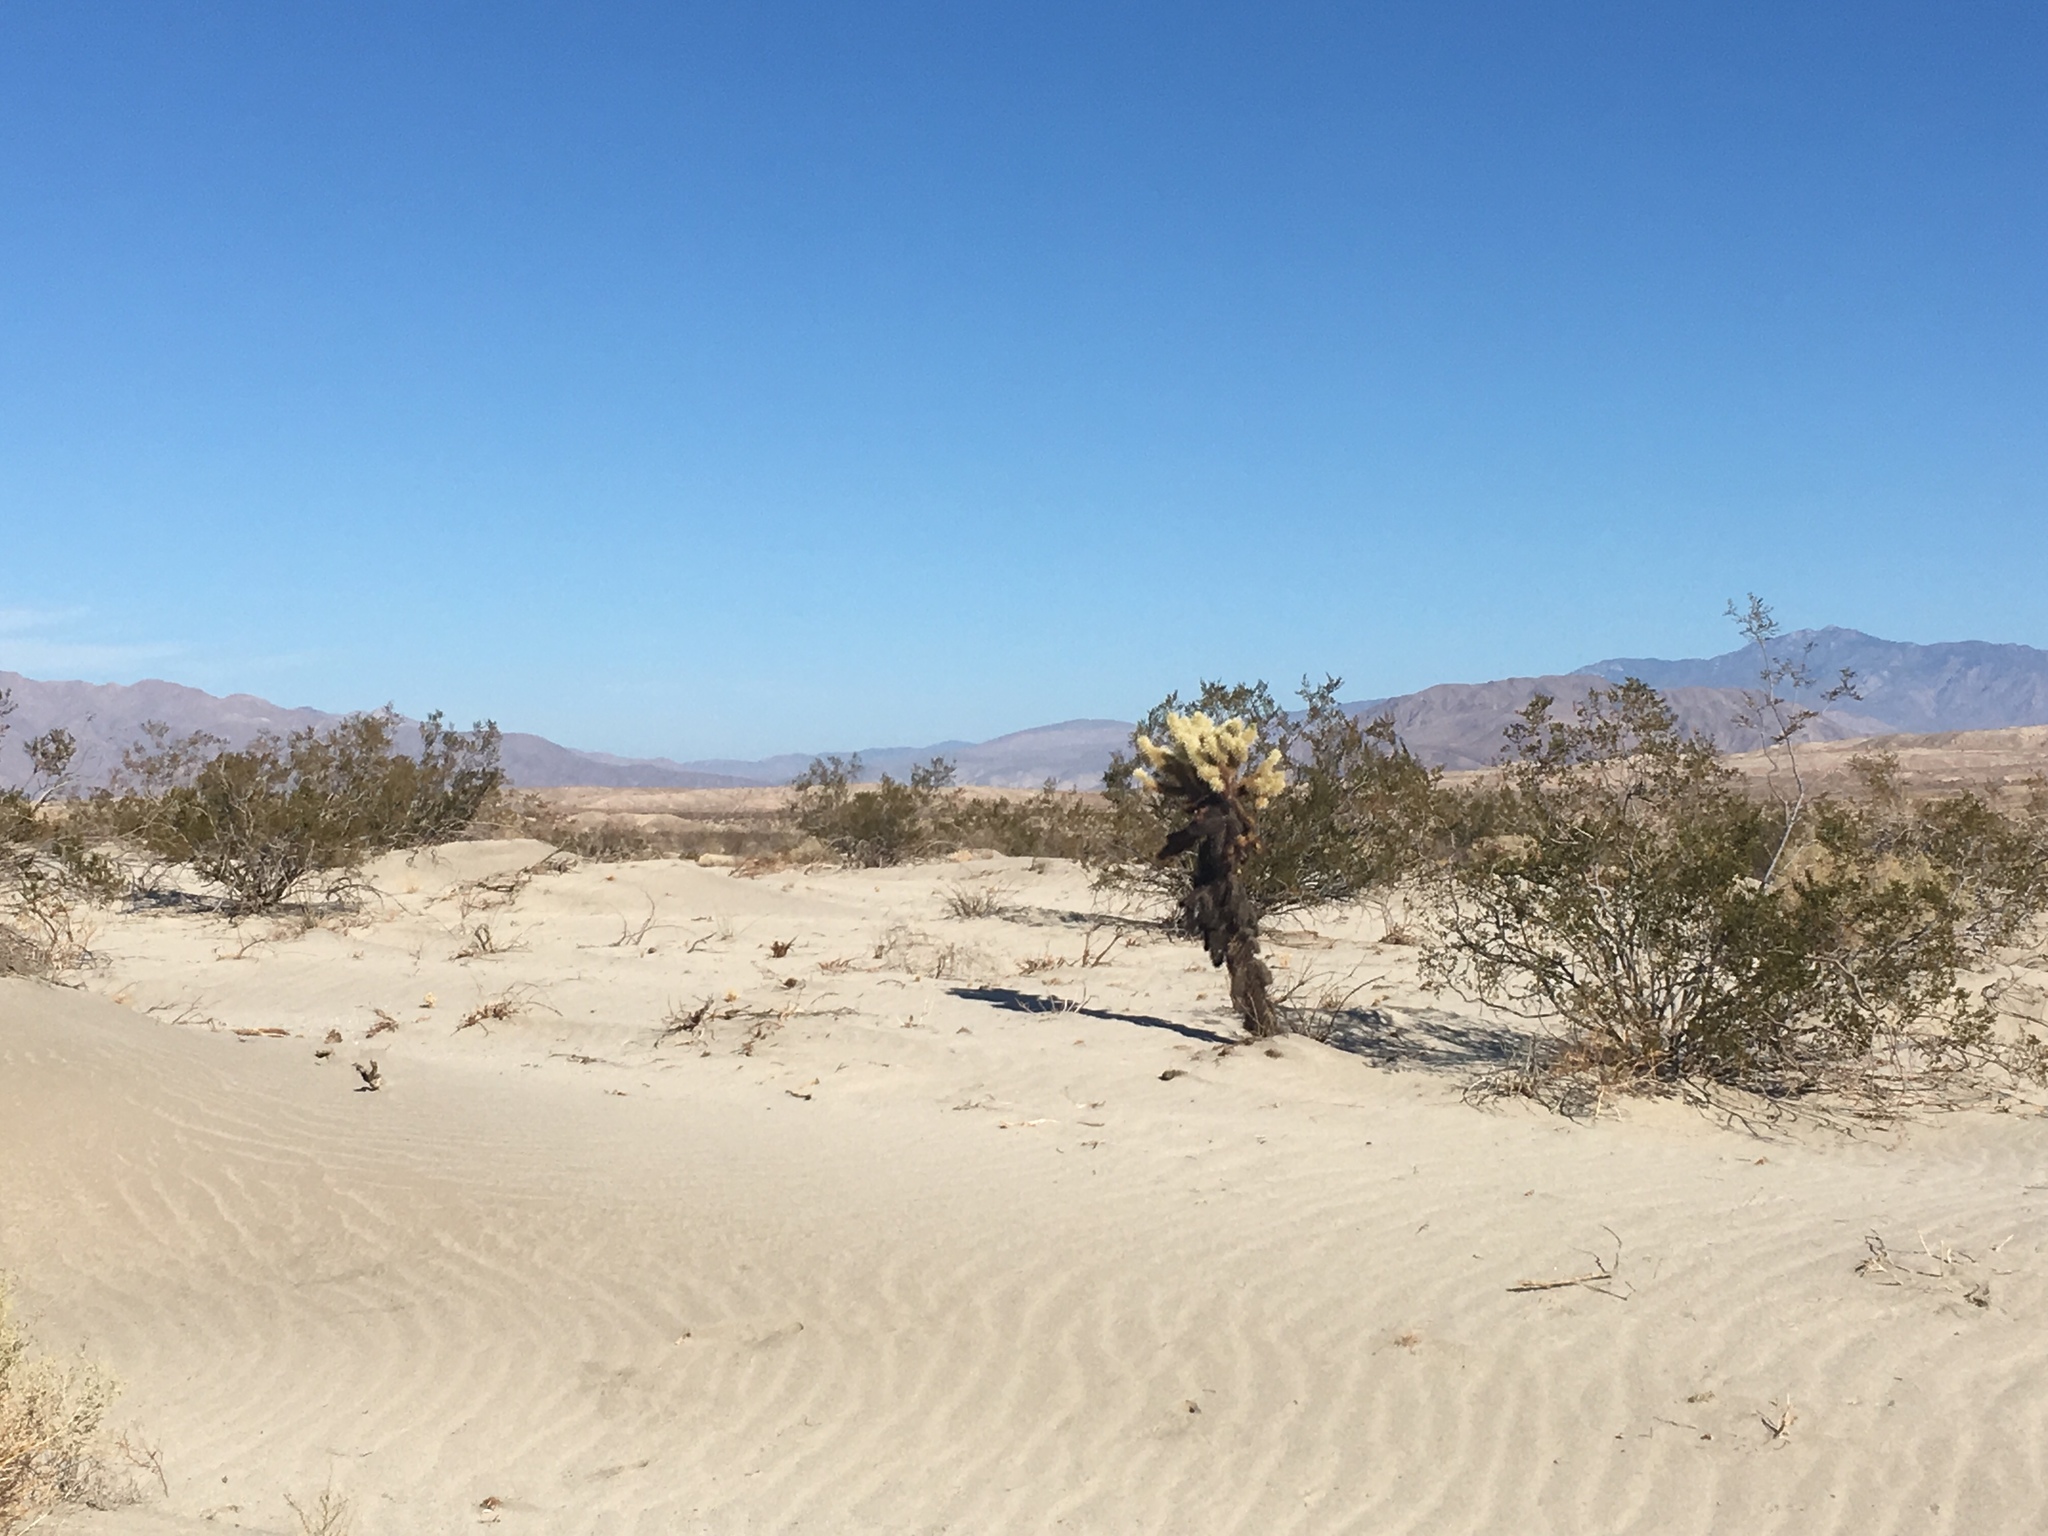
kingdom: Plantae
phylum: Tracheophyta
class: Magnoliopsida
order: Caryophyllales
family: Cactaceae
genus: Cylindropuntia
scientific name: Cylindropuntia fosbergii
